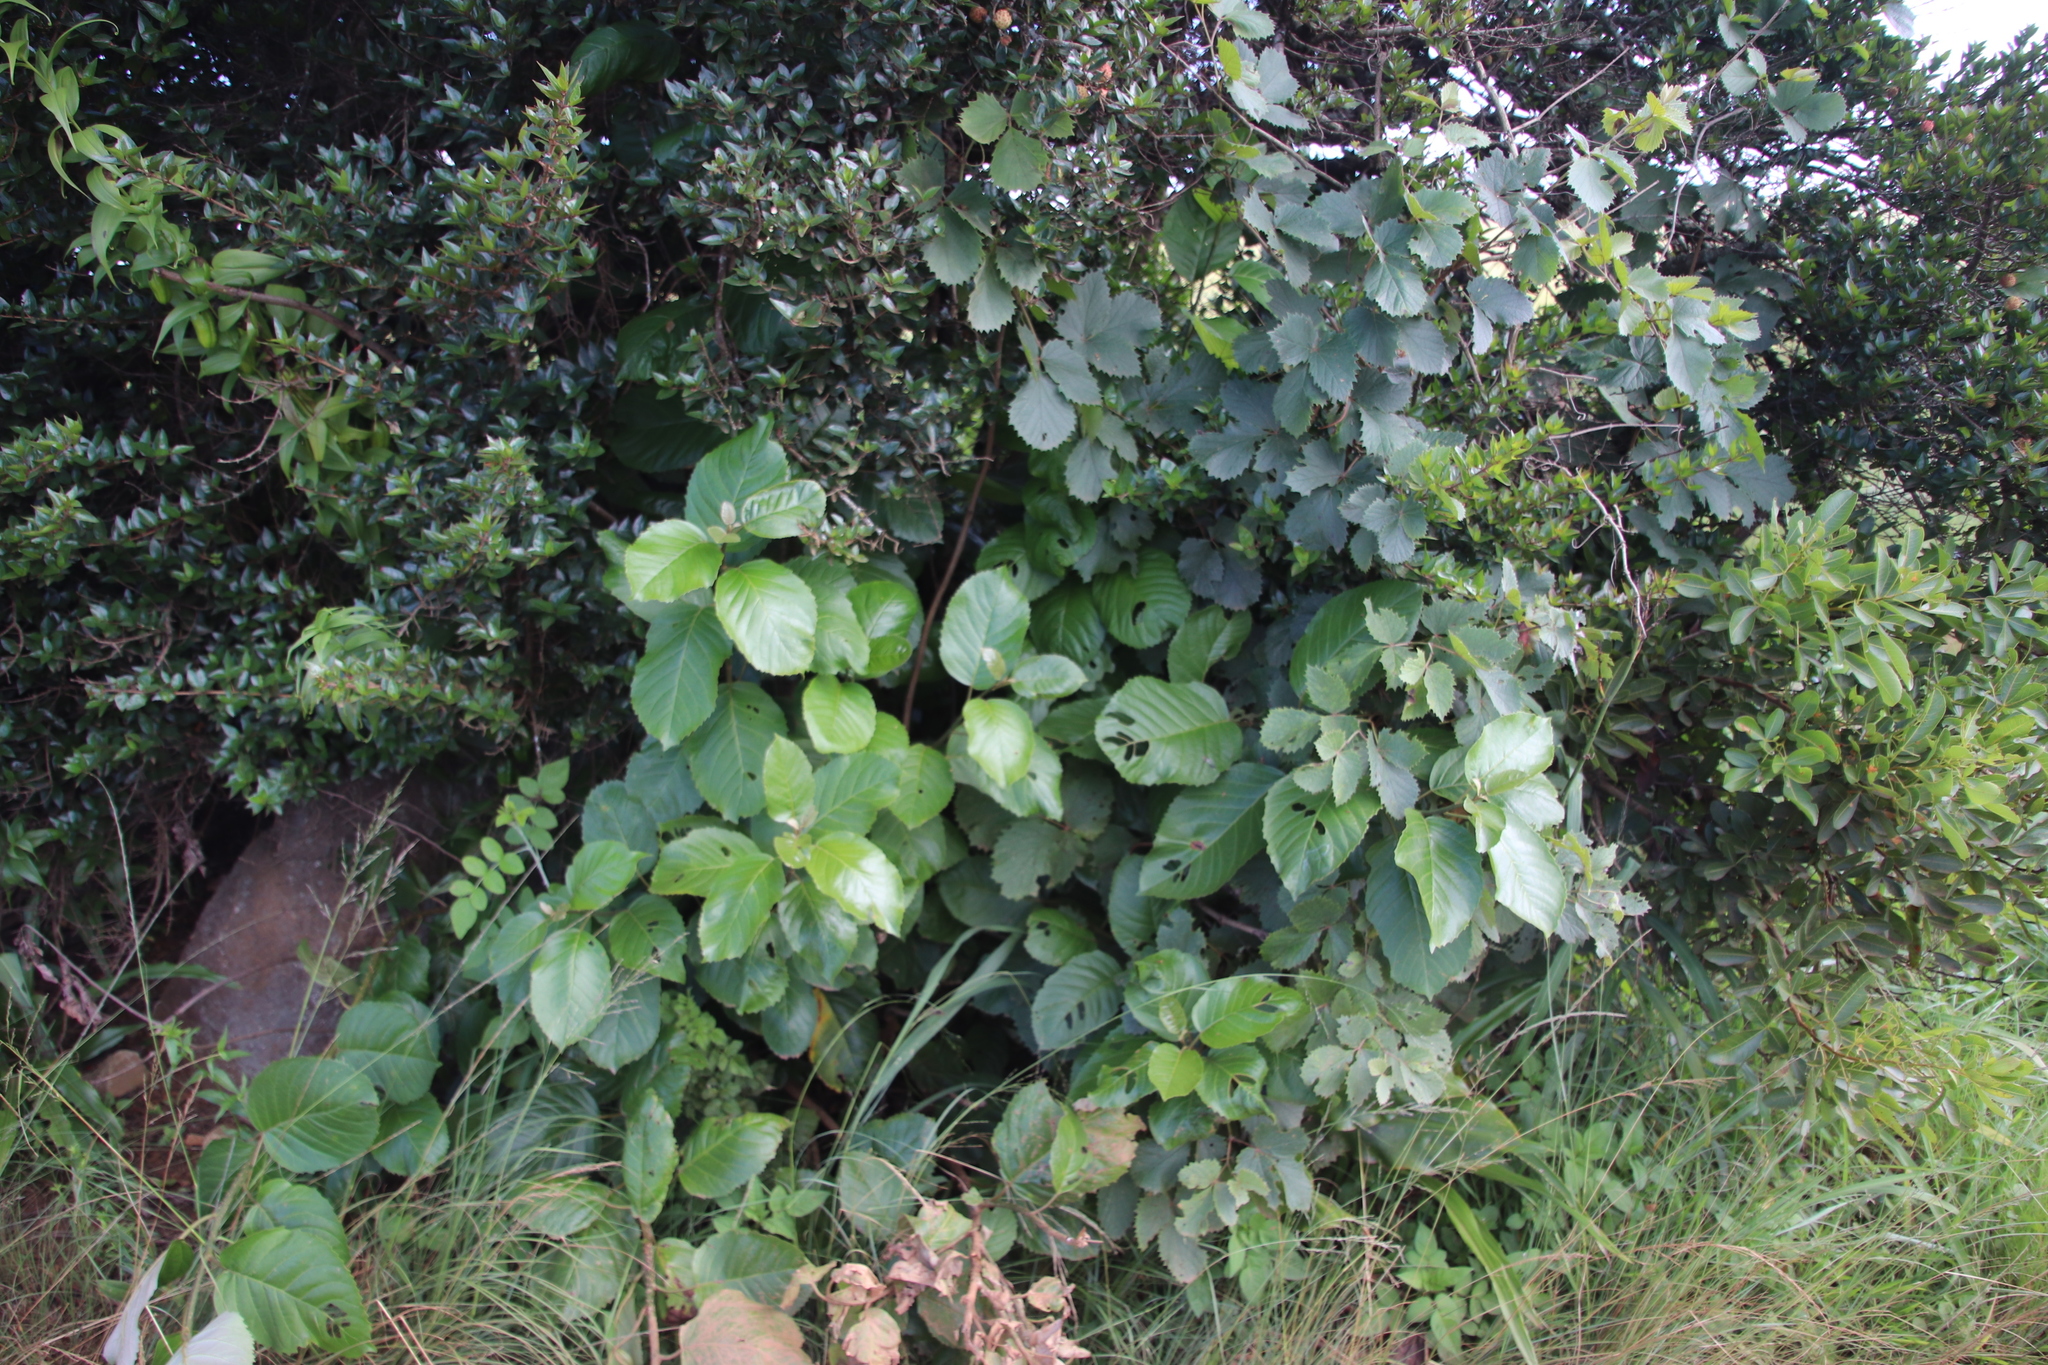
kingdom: Plantae
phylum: Tracheophyta
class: Magnoliopsida
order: Ericales
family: Primulaceae
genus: Maesa
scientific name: Maesa lanceolata
